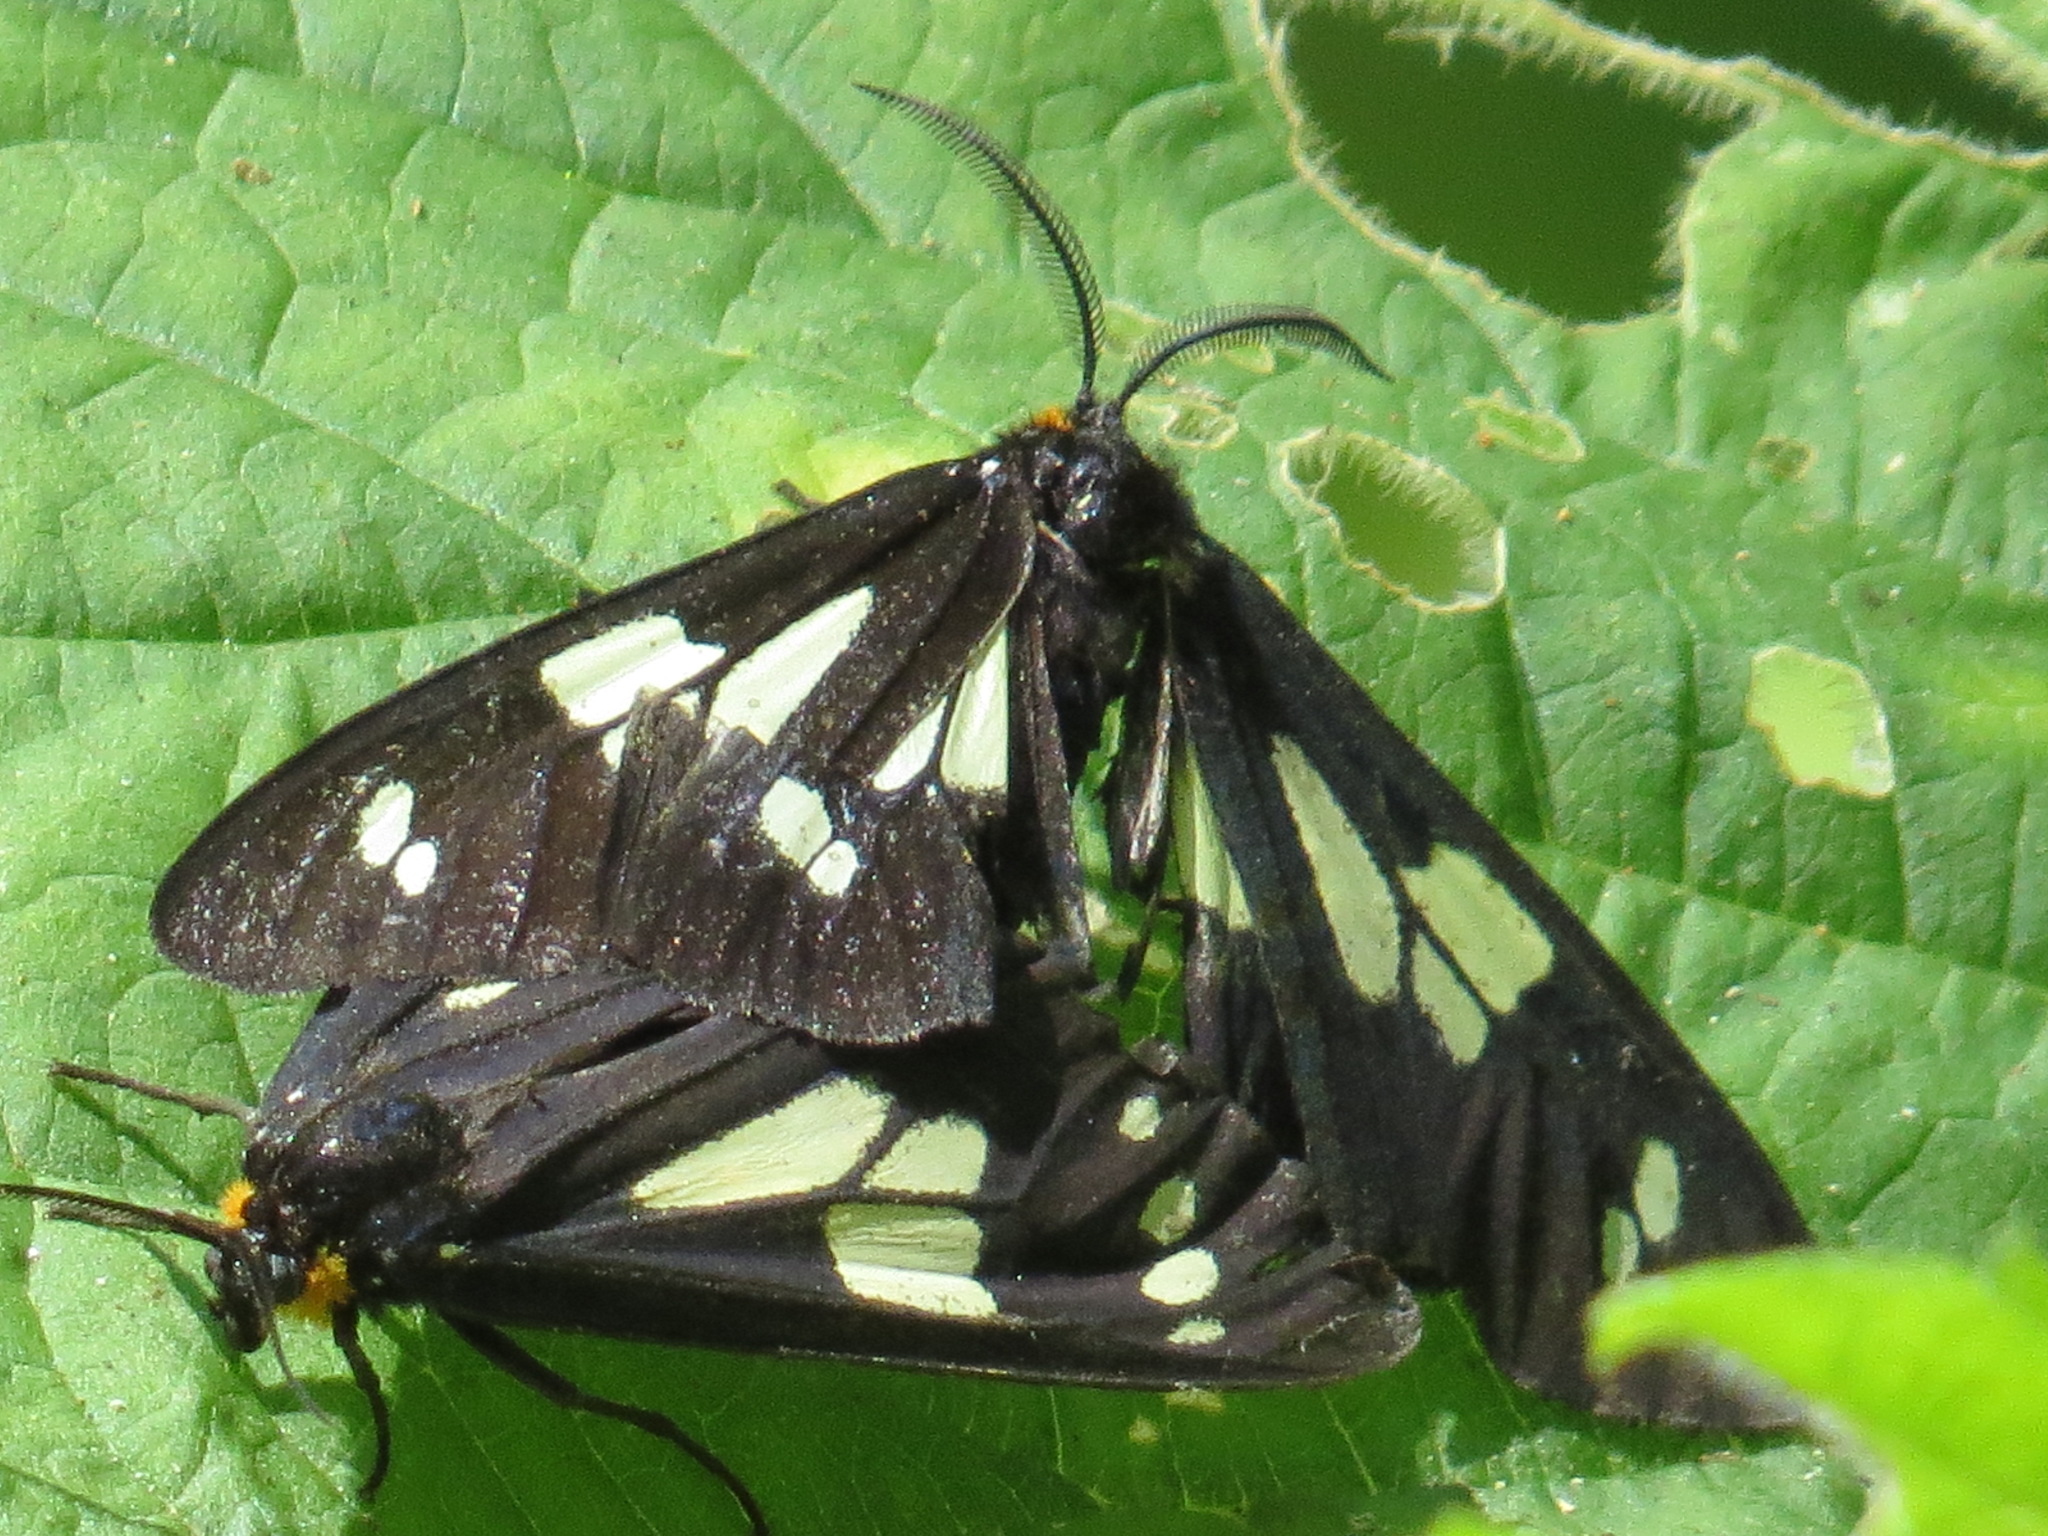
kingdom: Animalia
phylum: Arthropoda
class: Insecta
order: Lepidoptera
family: Erebidae
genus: Gnophaela
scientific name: Gnophaela latipennis
